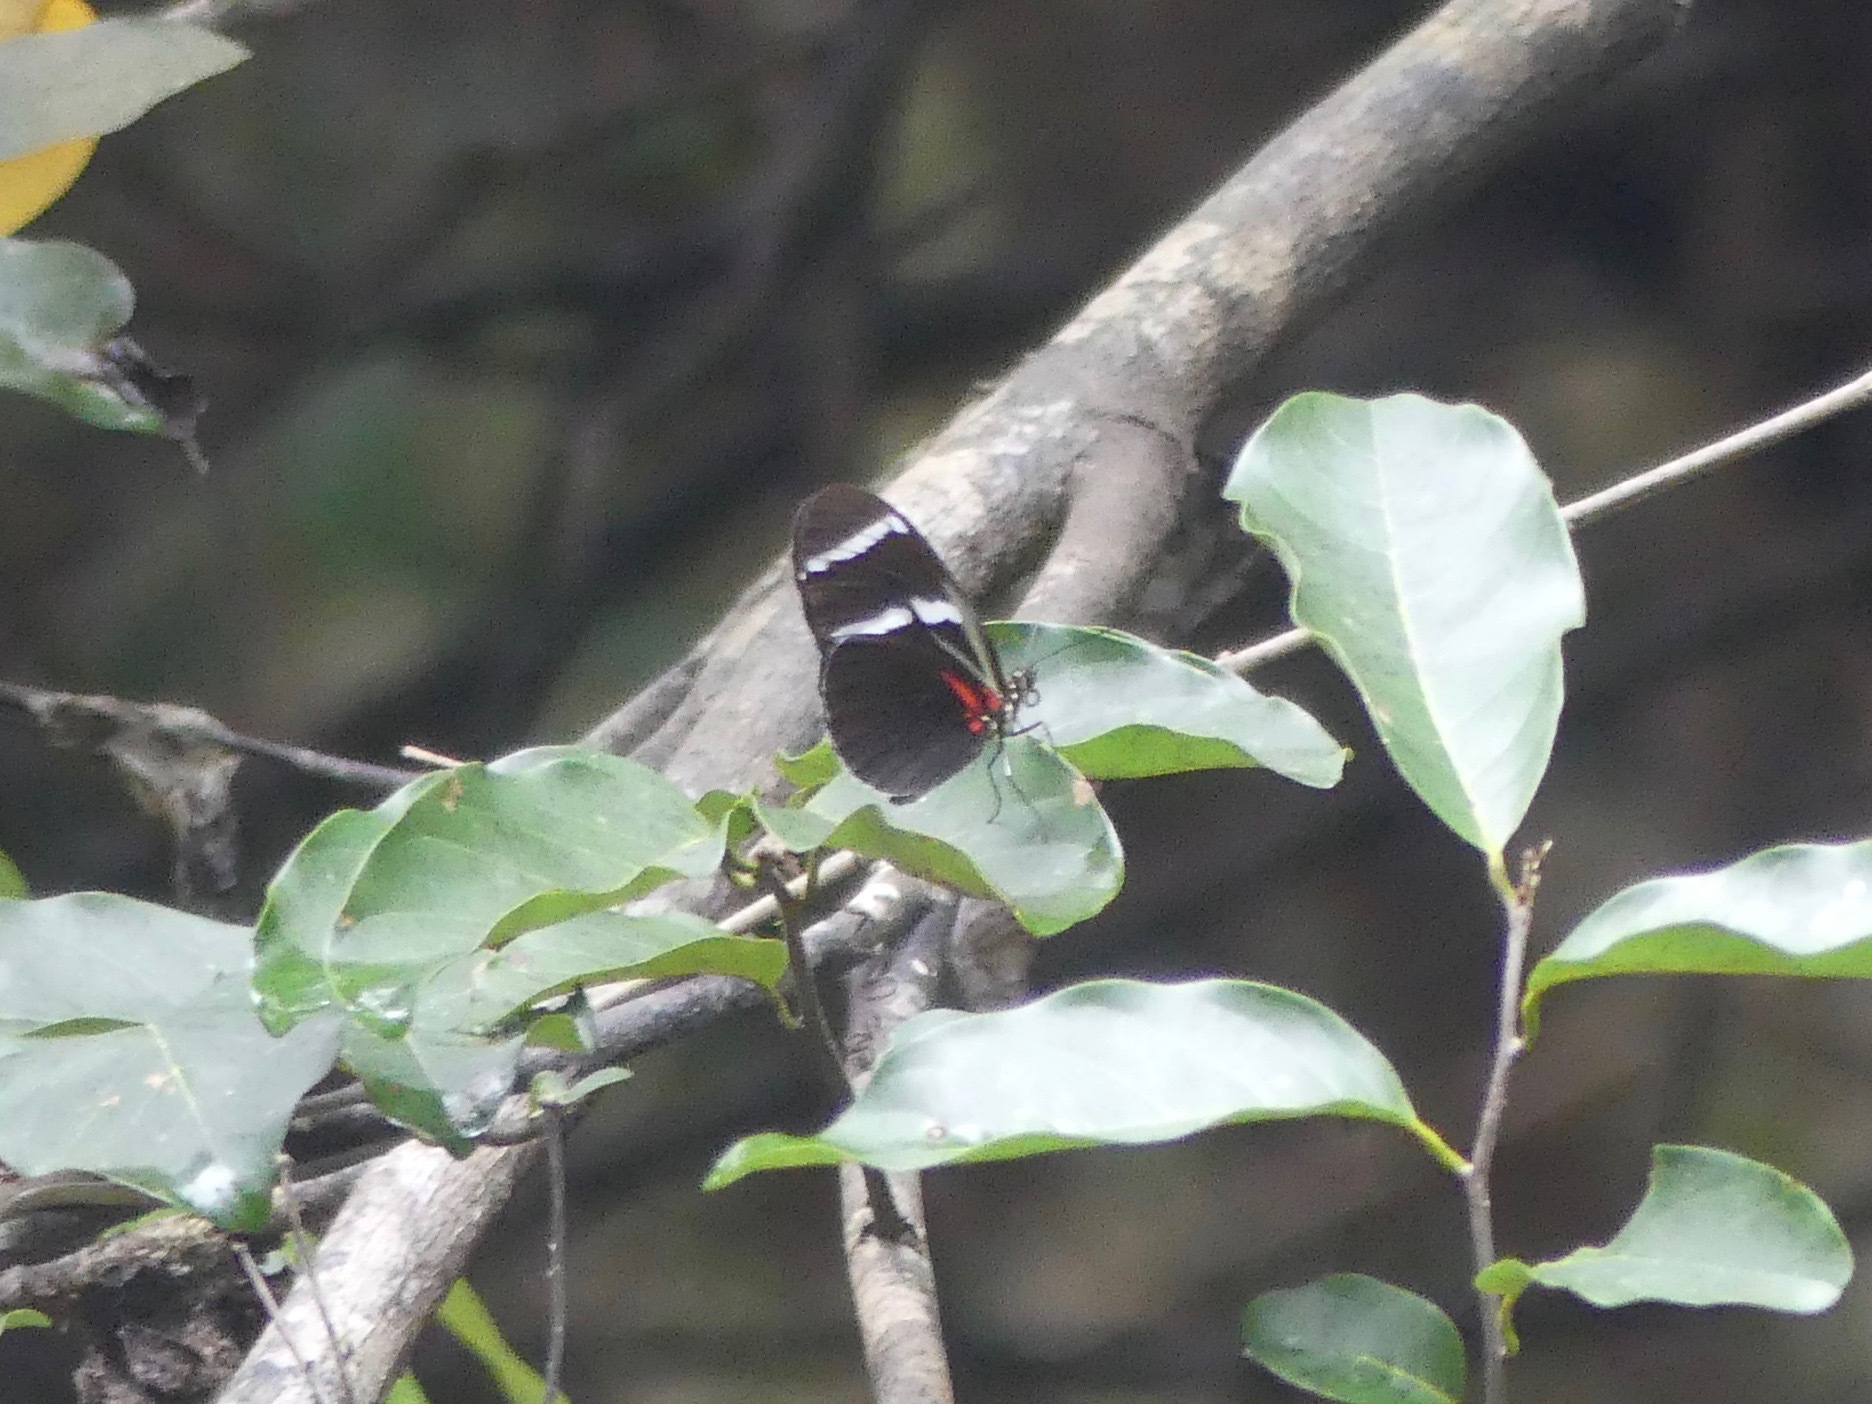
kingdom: Animalia
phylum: Arthropoda
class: Insecta
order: Lepidoptera
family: Nymphalidae
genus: Heliconius
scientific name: Heliconius antiochus
